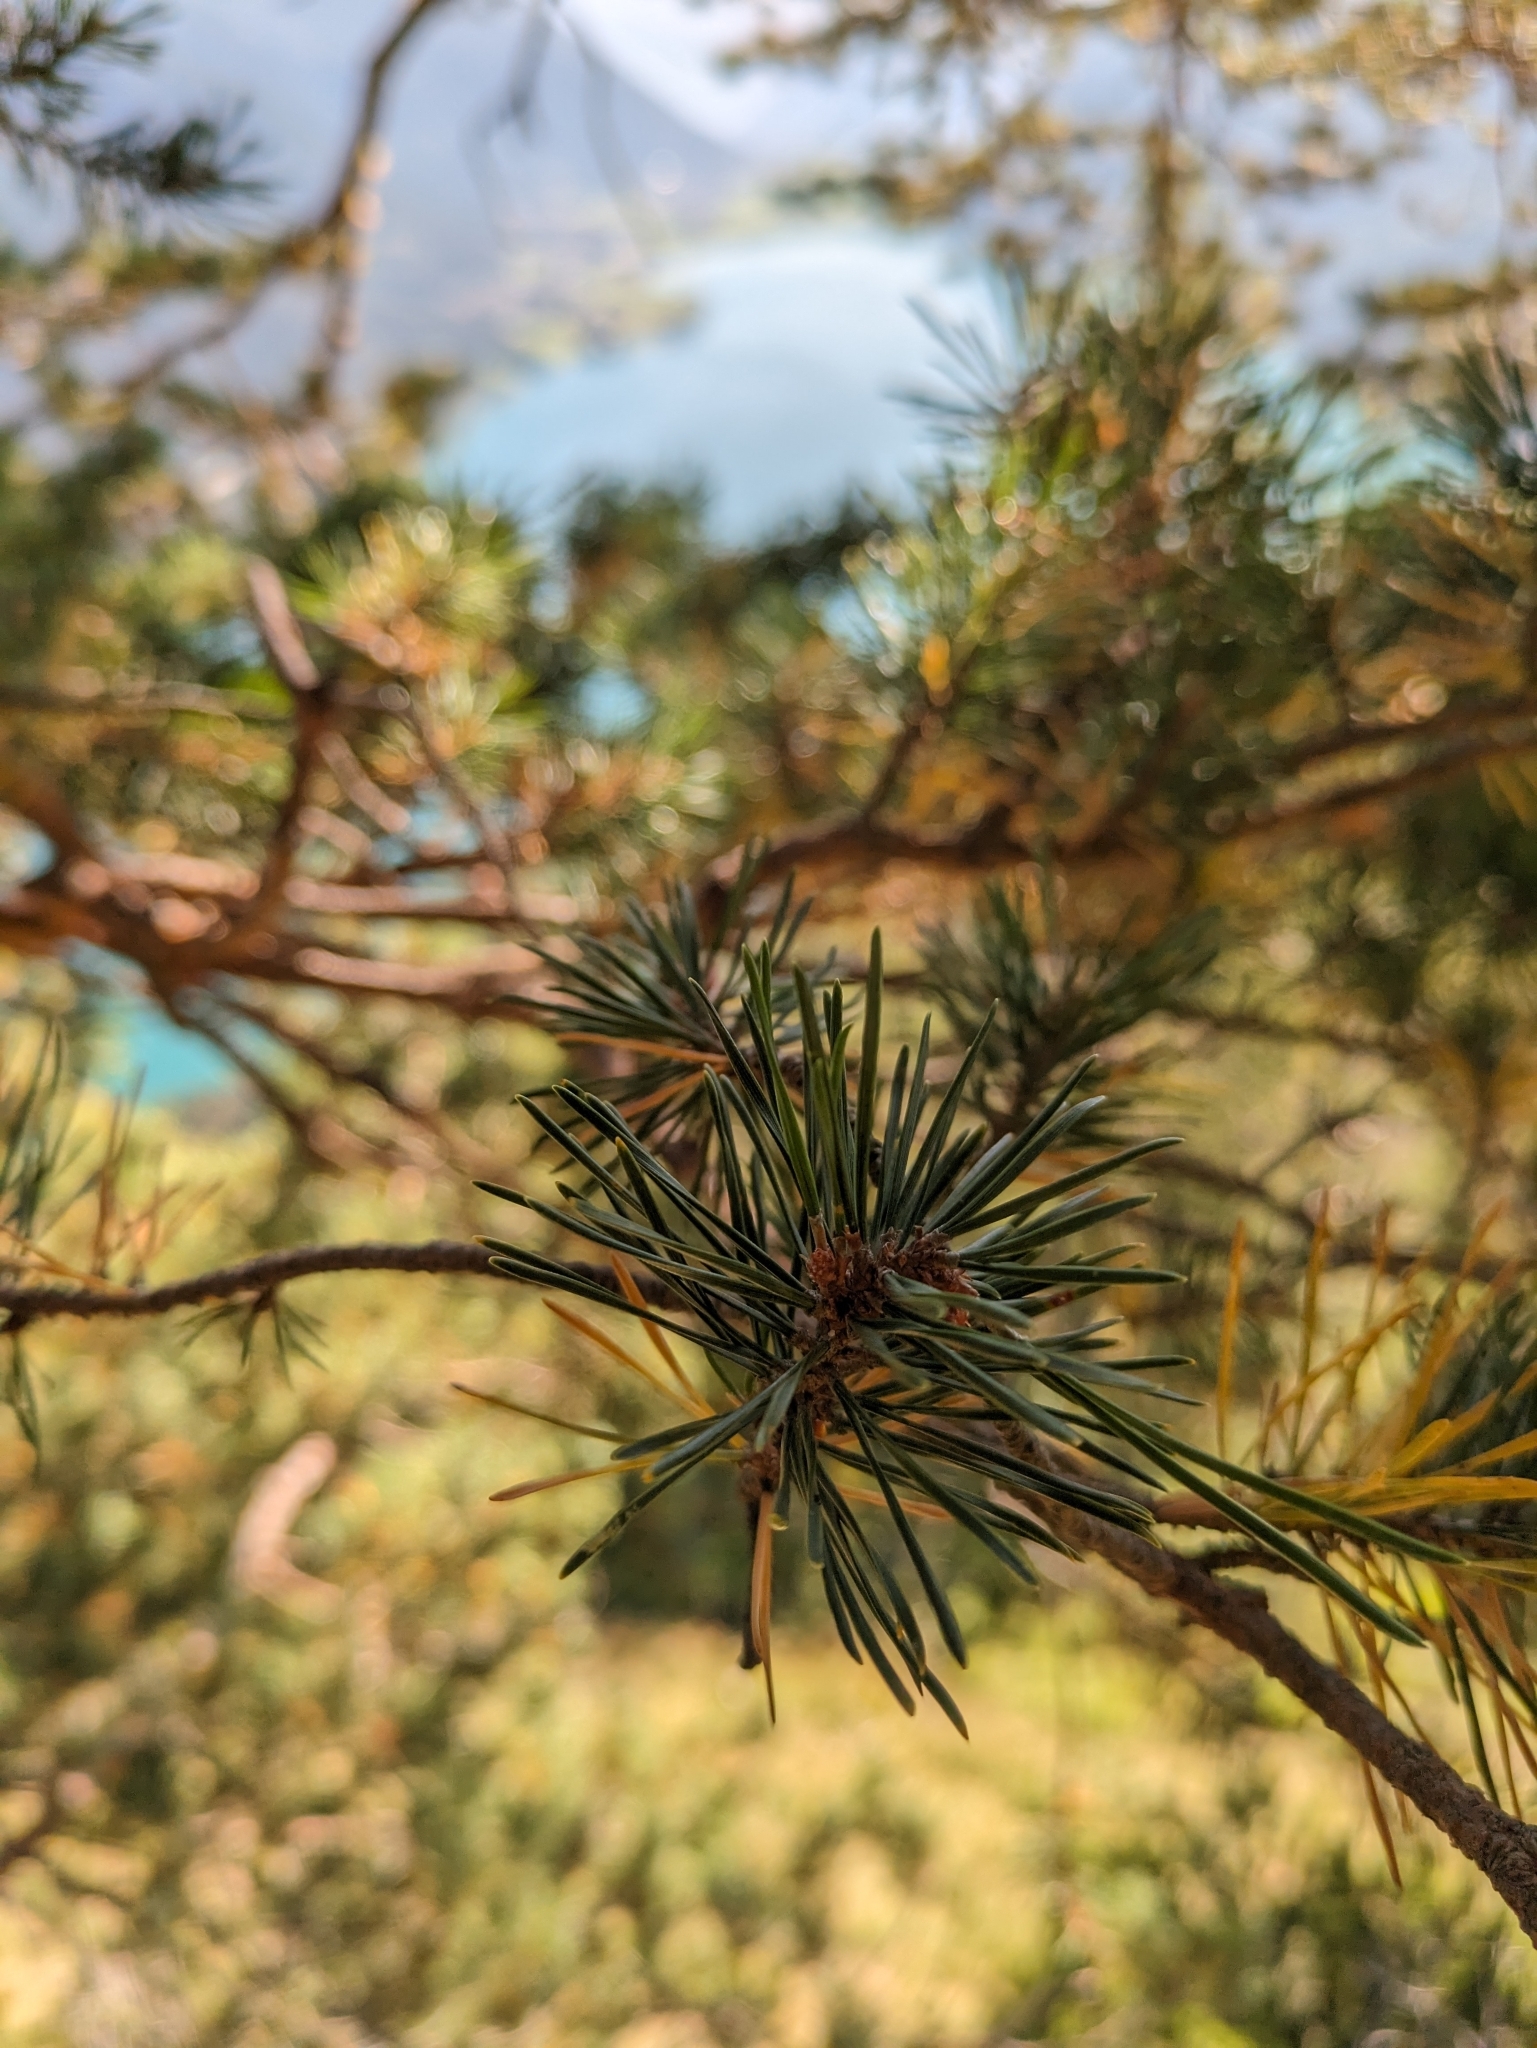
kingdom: Plantae
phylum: Tracheophyta
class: Pinopsida
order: Pinales
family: Pinaceae
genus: Pinus
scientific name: Pinus sylvestris
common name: Scots pine
